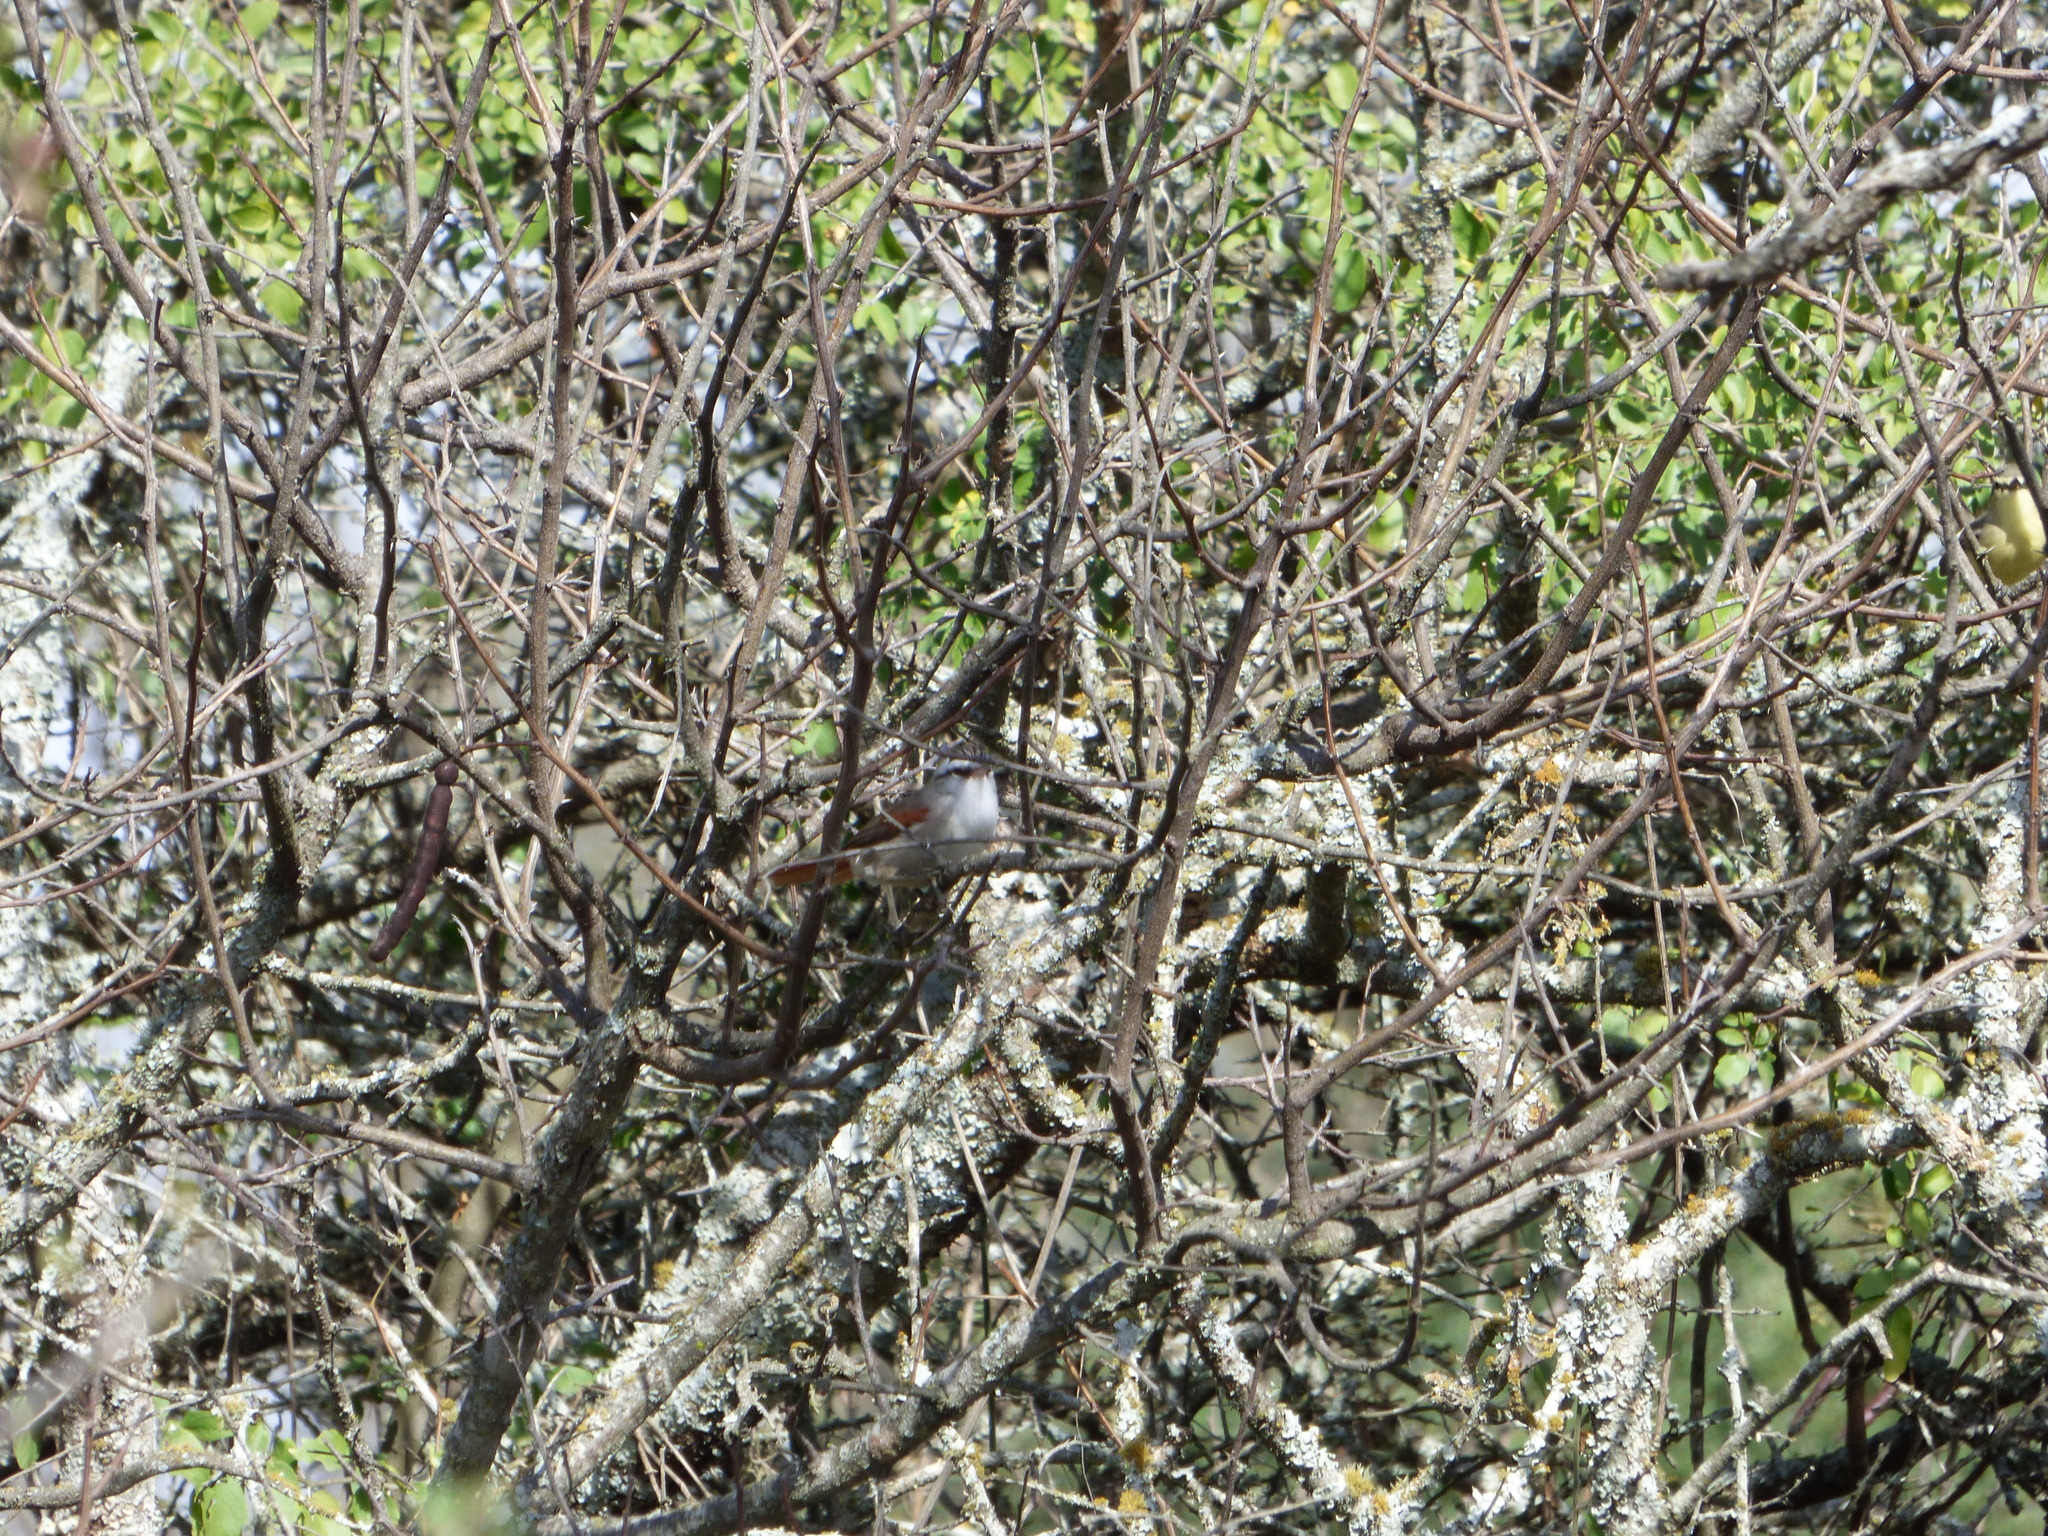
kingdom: Animalia
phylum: Chordata
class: Aves
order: Passeriformes
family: Furnariidae
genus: Cranioleuca
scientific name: Cranioleuca pyrrhophia
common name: Stripe-crowned spinetail
